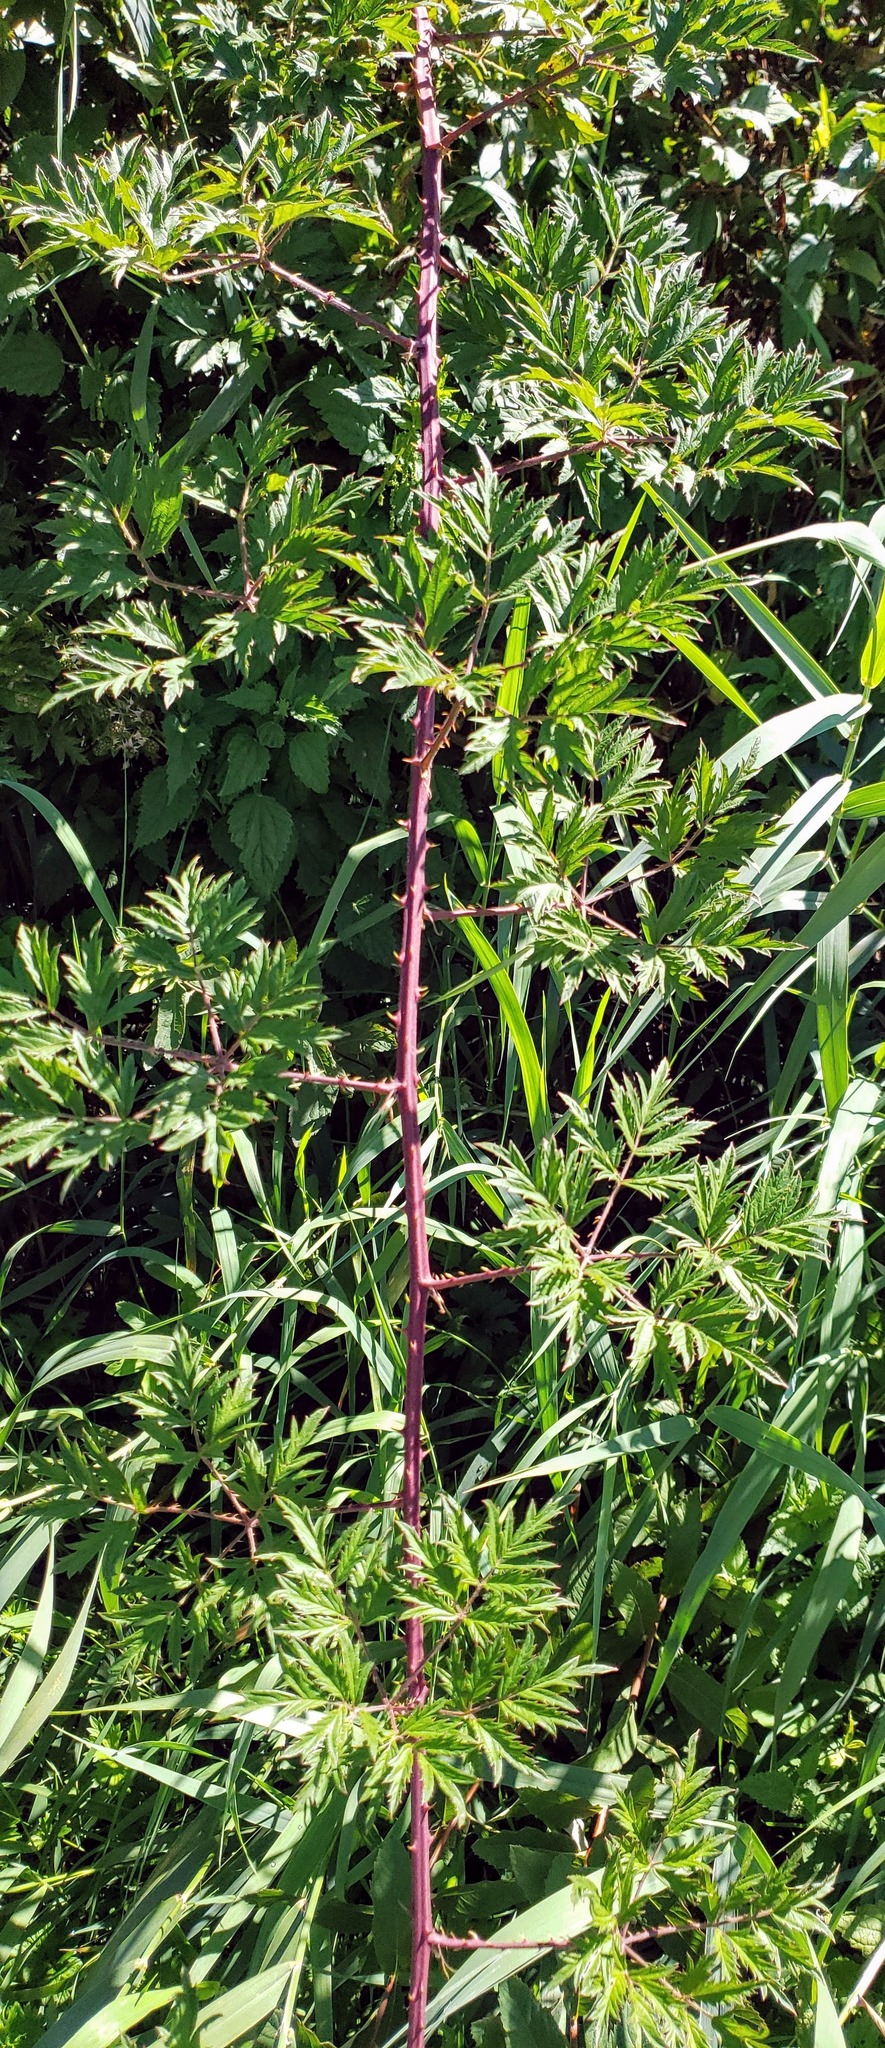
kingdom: Plantae
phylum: Tracheophyta
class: Magnoliopsida
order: Rosales
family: Rosaceae
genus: Rubus
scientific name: Rubus laciniatus
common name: Evergreen blackberry
